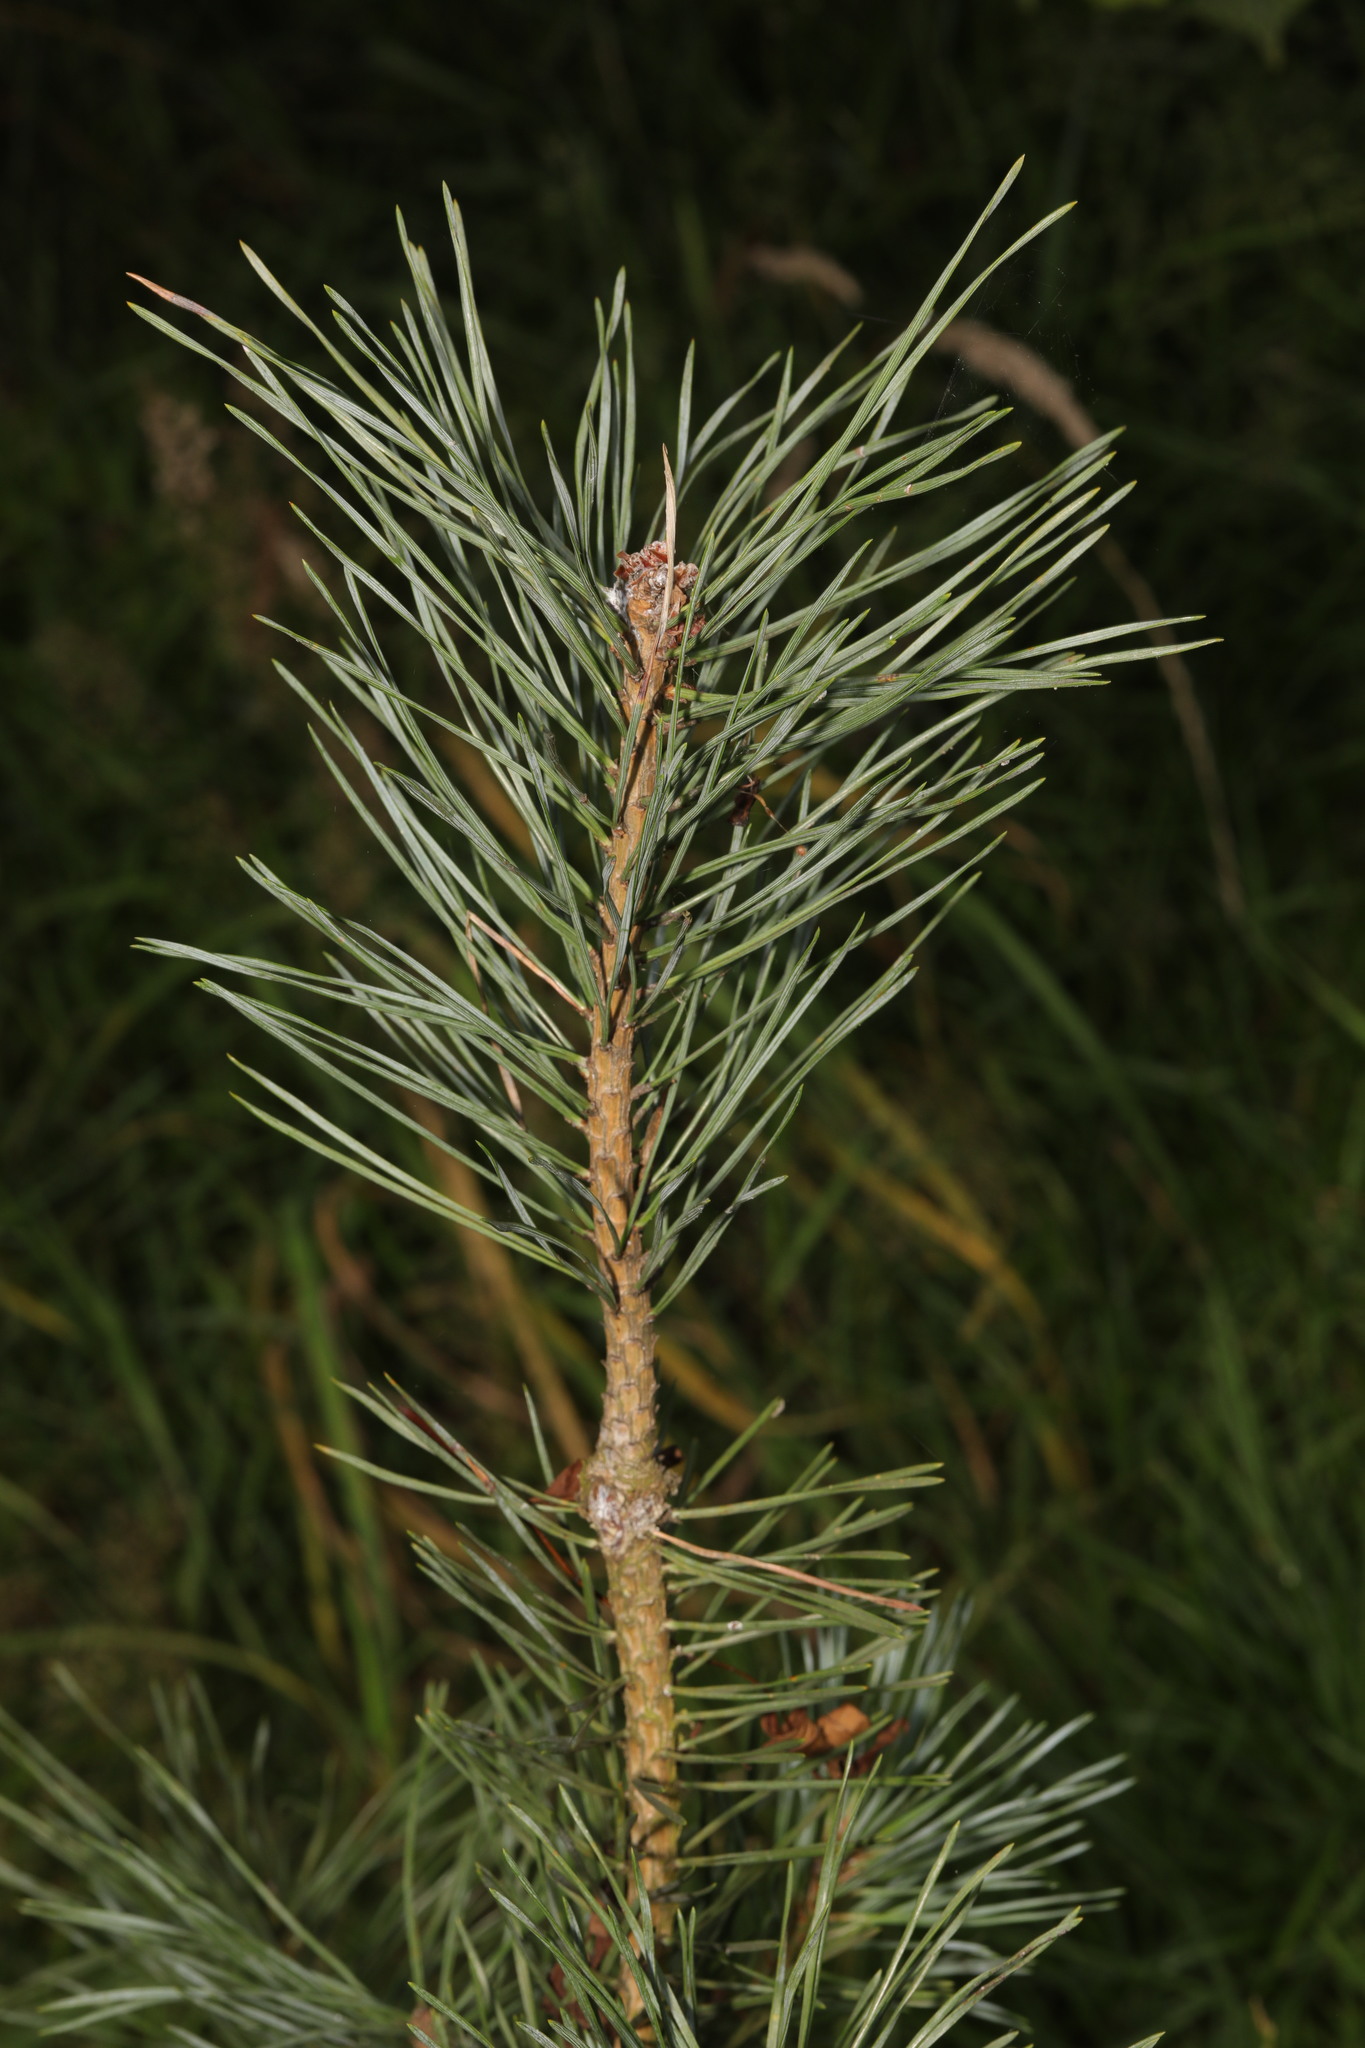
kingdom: Plantae
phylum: Tracheophyta
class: Pinopsida
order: Pinales
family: Pinaceae
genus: Pinus
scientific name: Pinus sylvestris
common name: Scots pine
